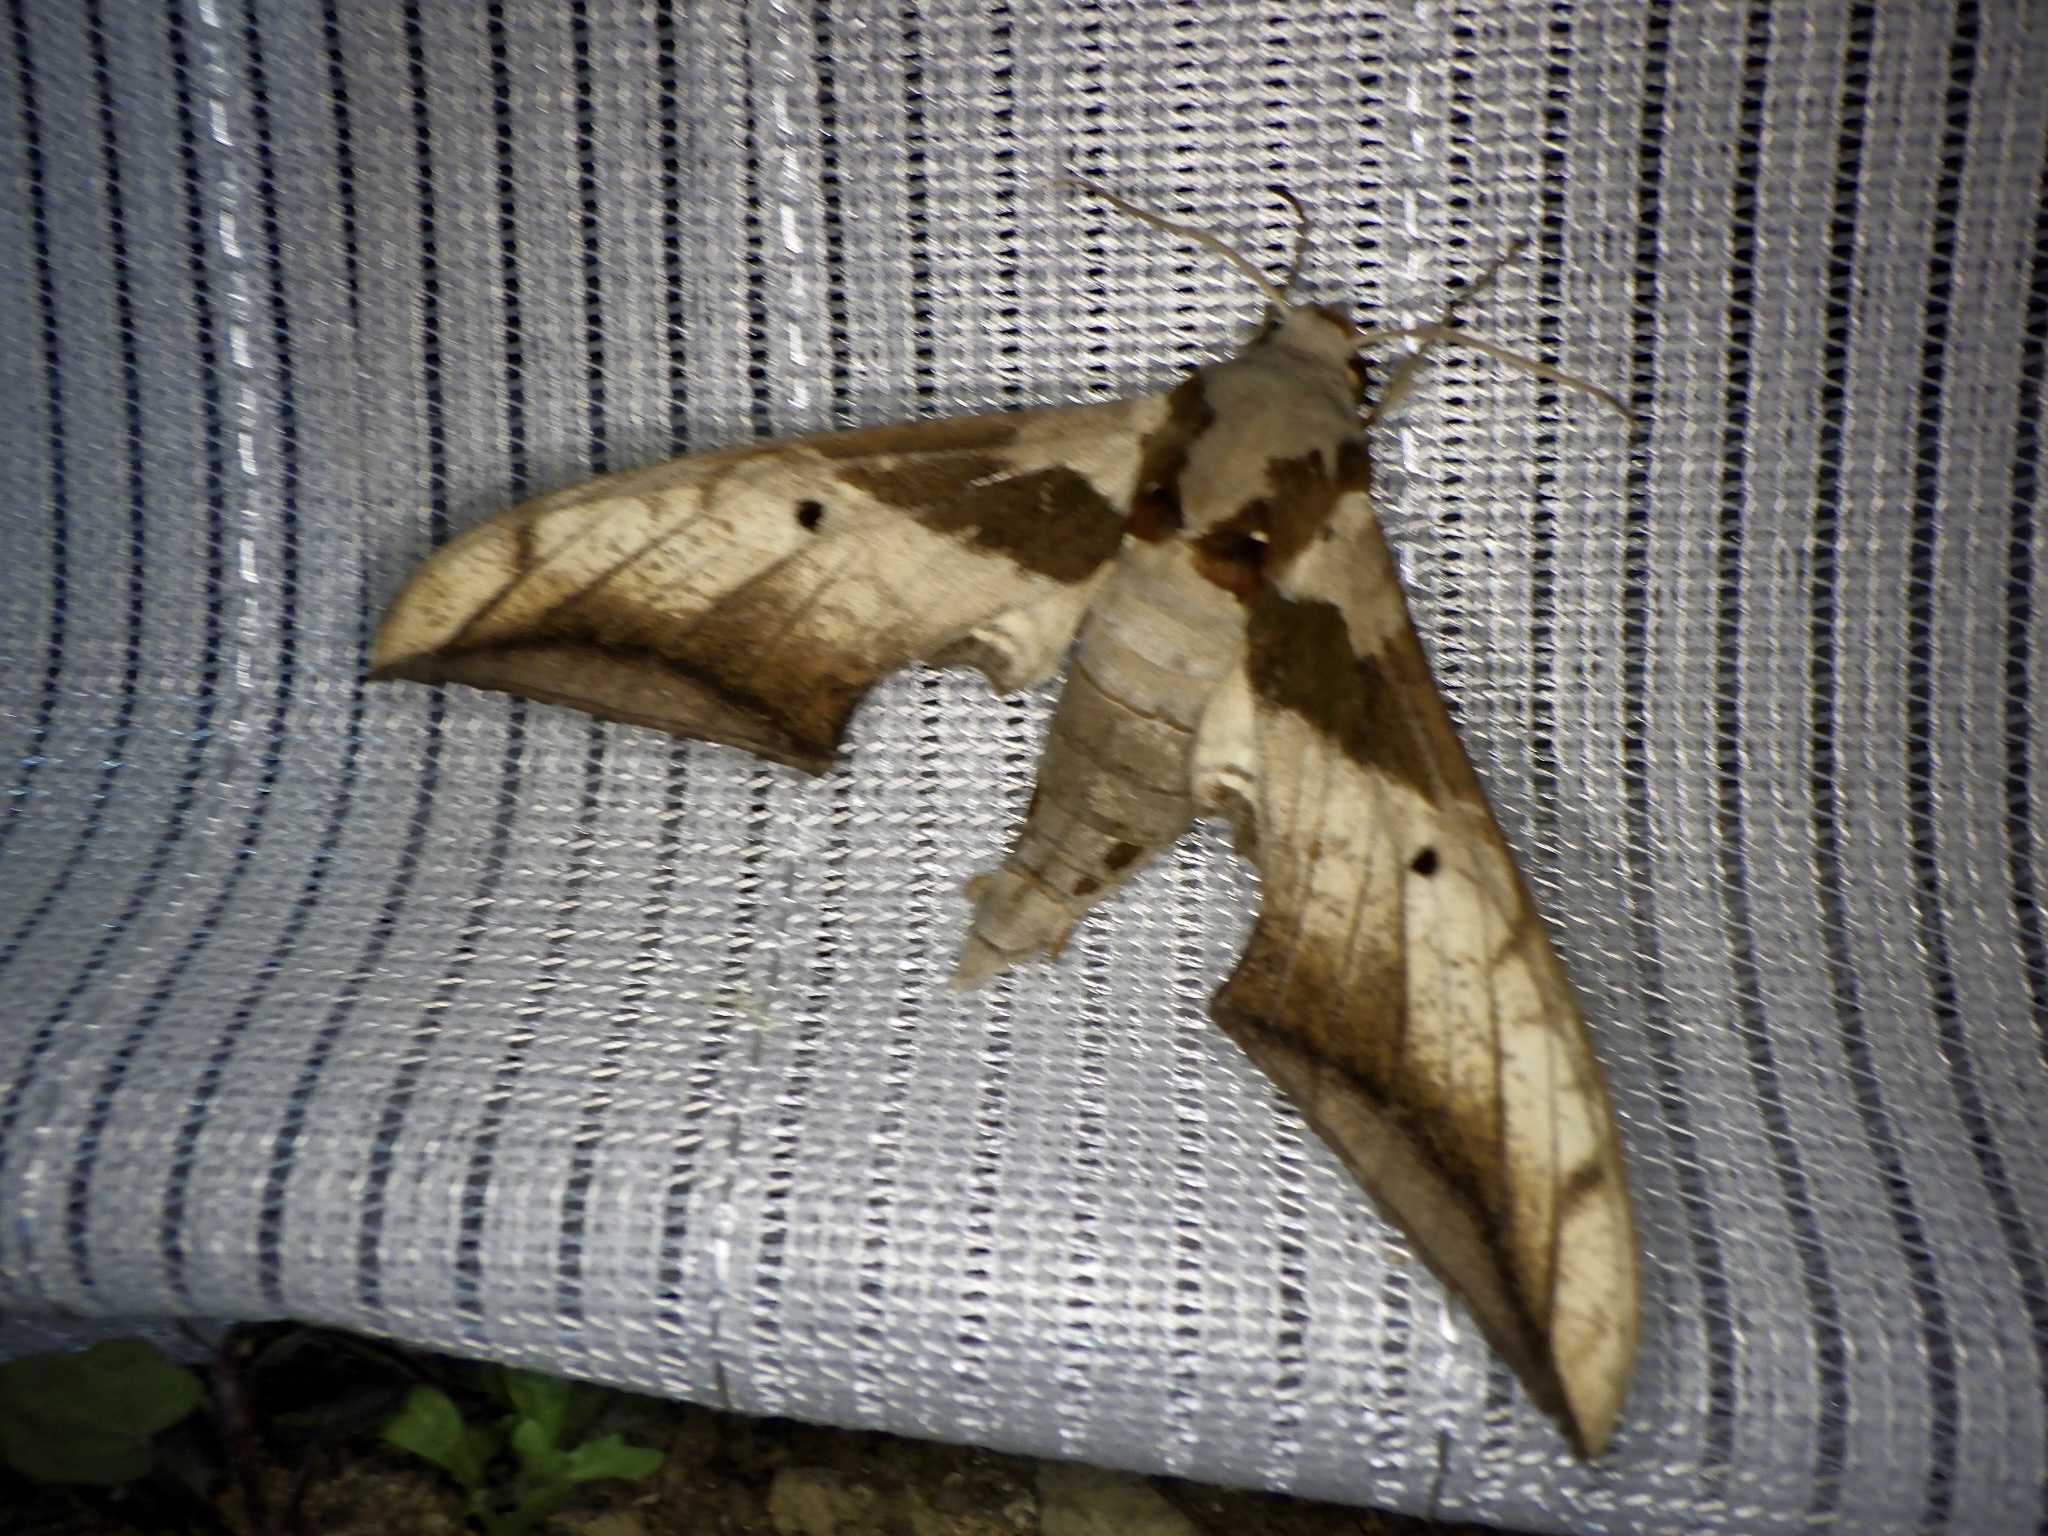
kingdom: Animalia
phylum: Arthropoda
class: Insecta
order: Lepidoptera
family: Sphingidae
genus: Ambulyx
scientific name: Ambulyx japonica
